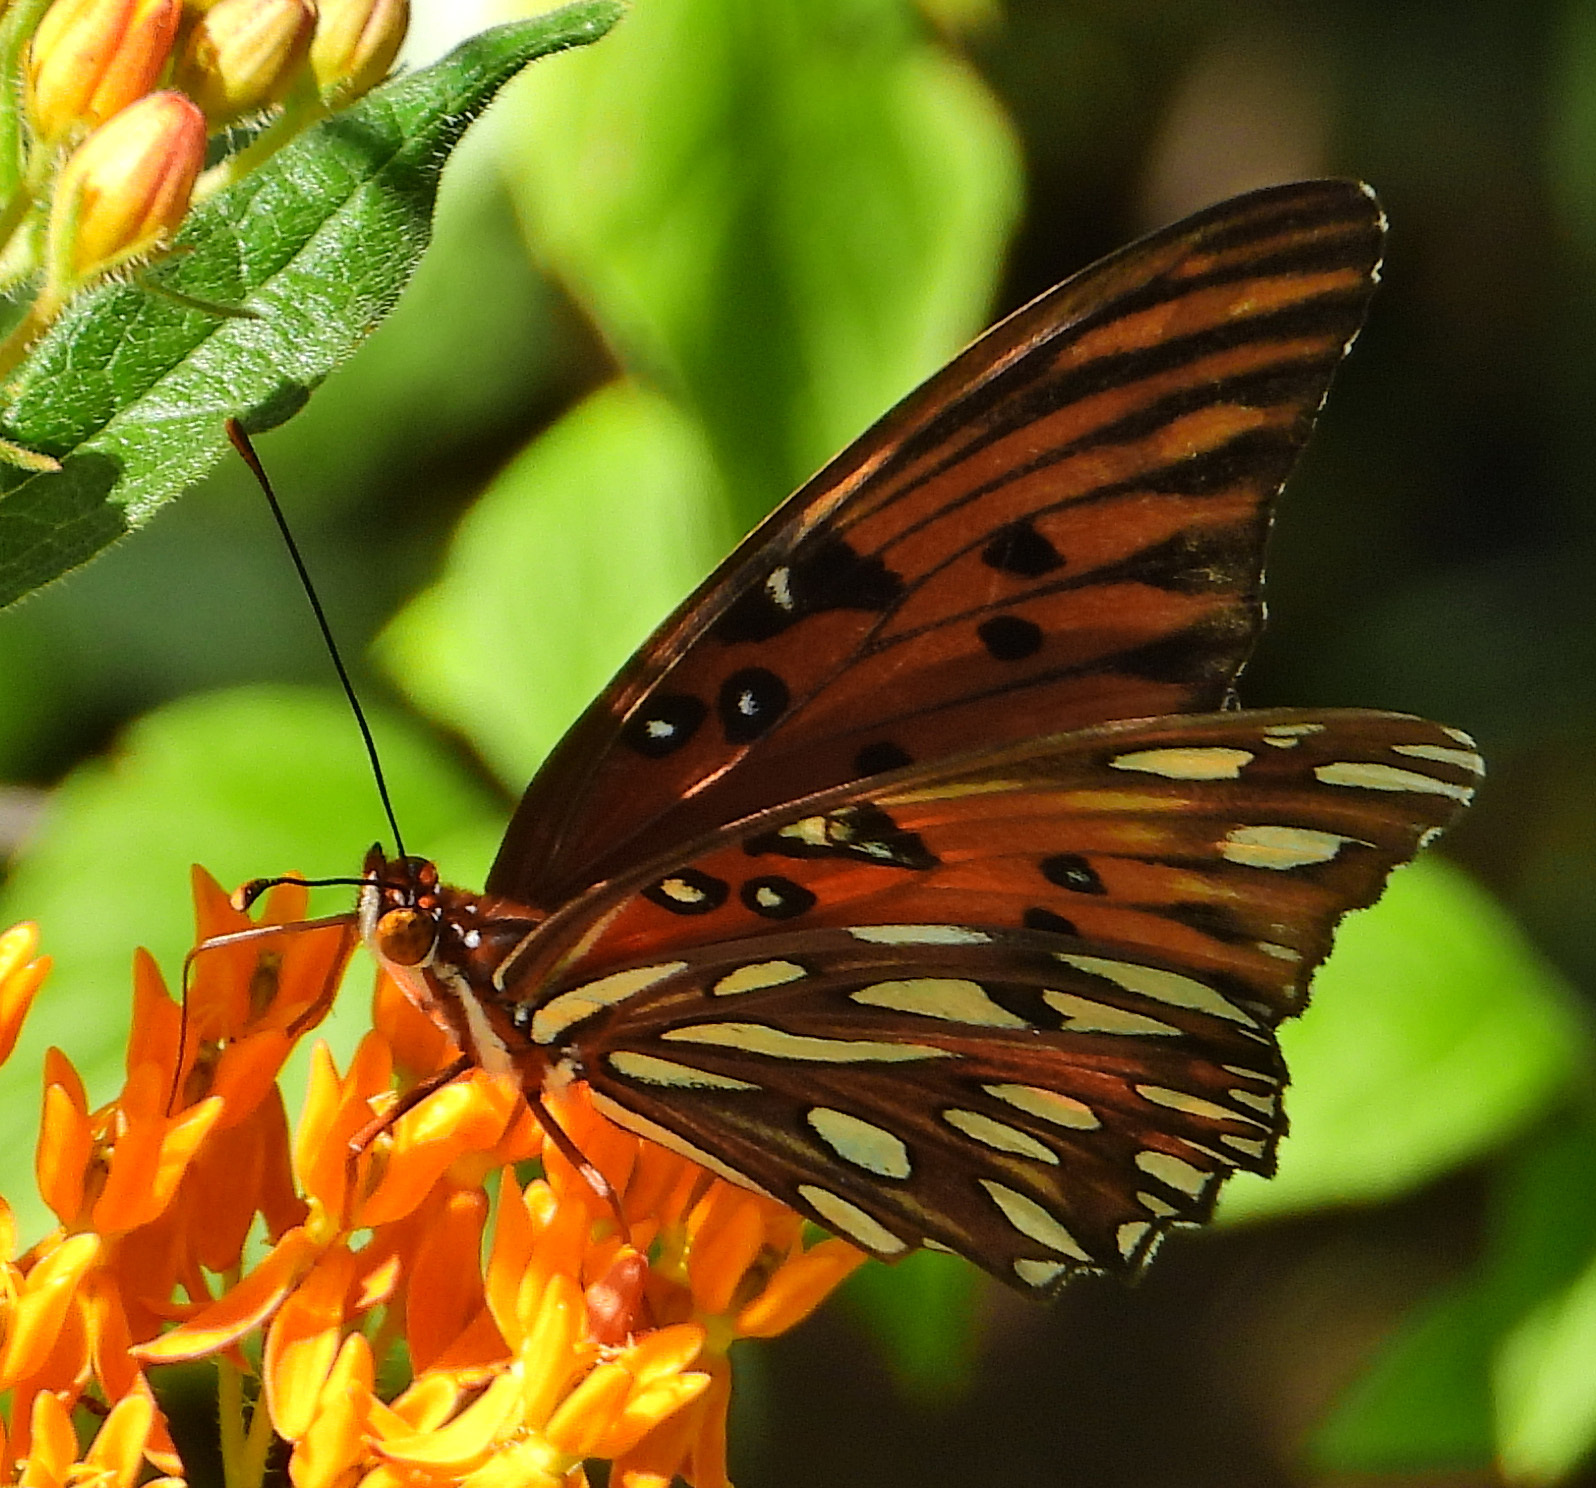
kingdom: Animalia
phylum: Arthropoda
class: Insecta
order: Lepidoptera
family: Nymphalidae
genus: Dione
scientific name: Dione vanillae
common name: Gulf fritillary
